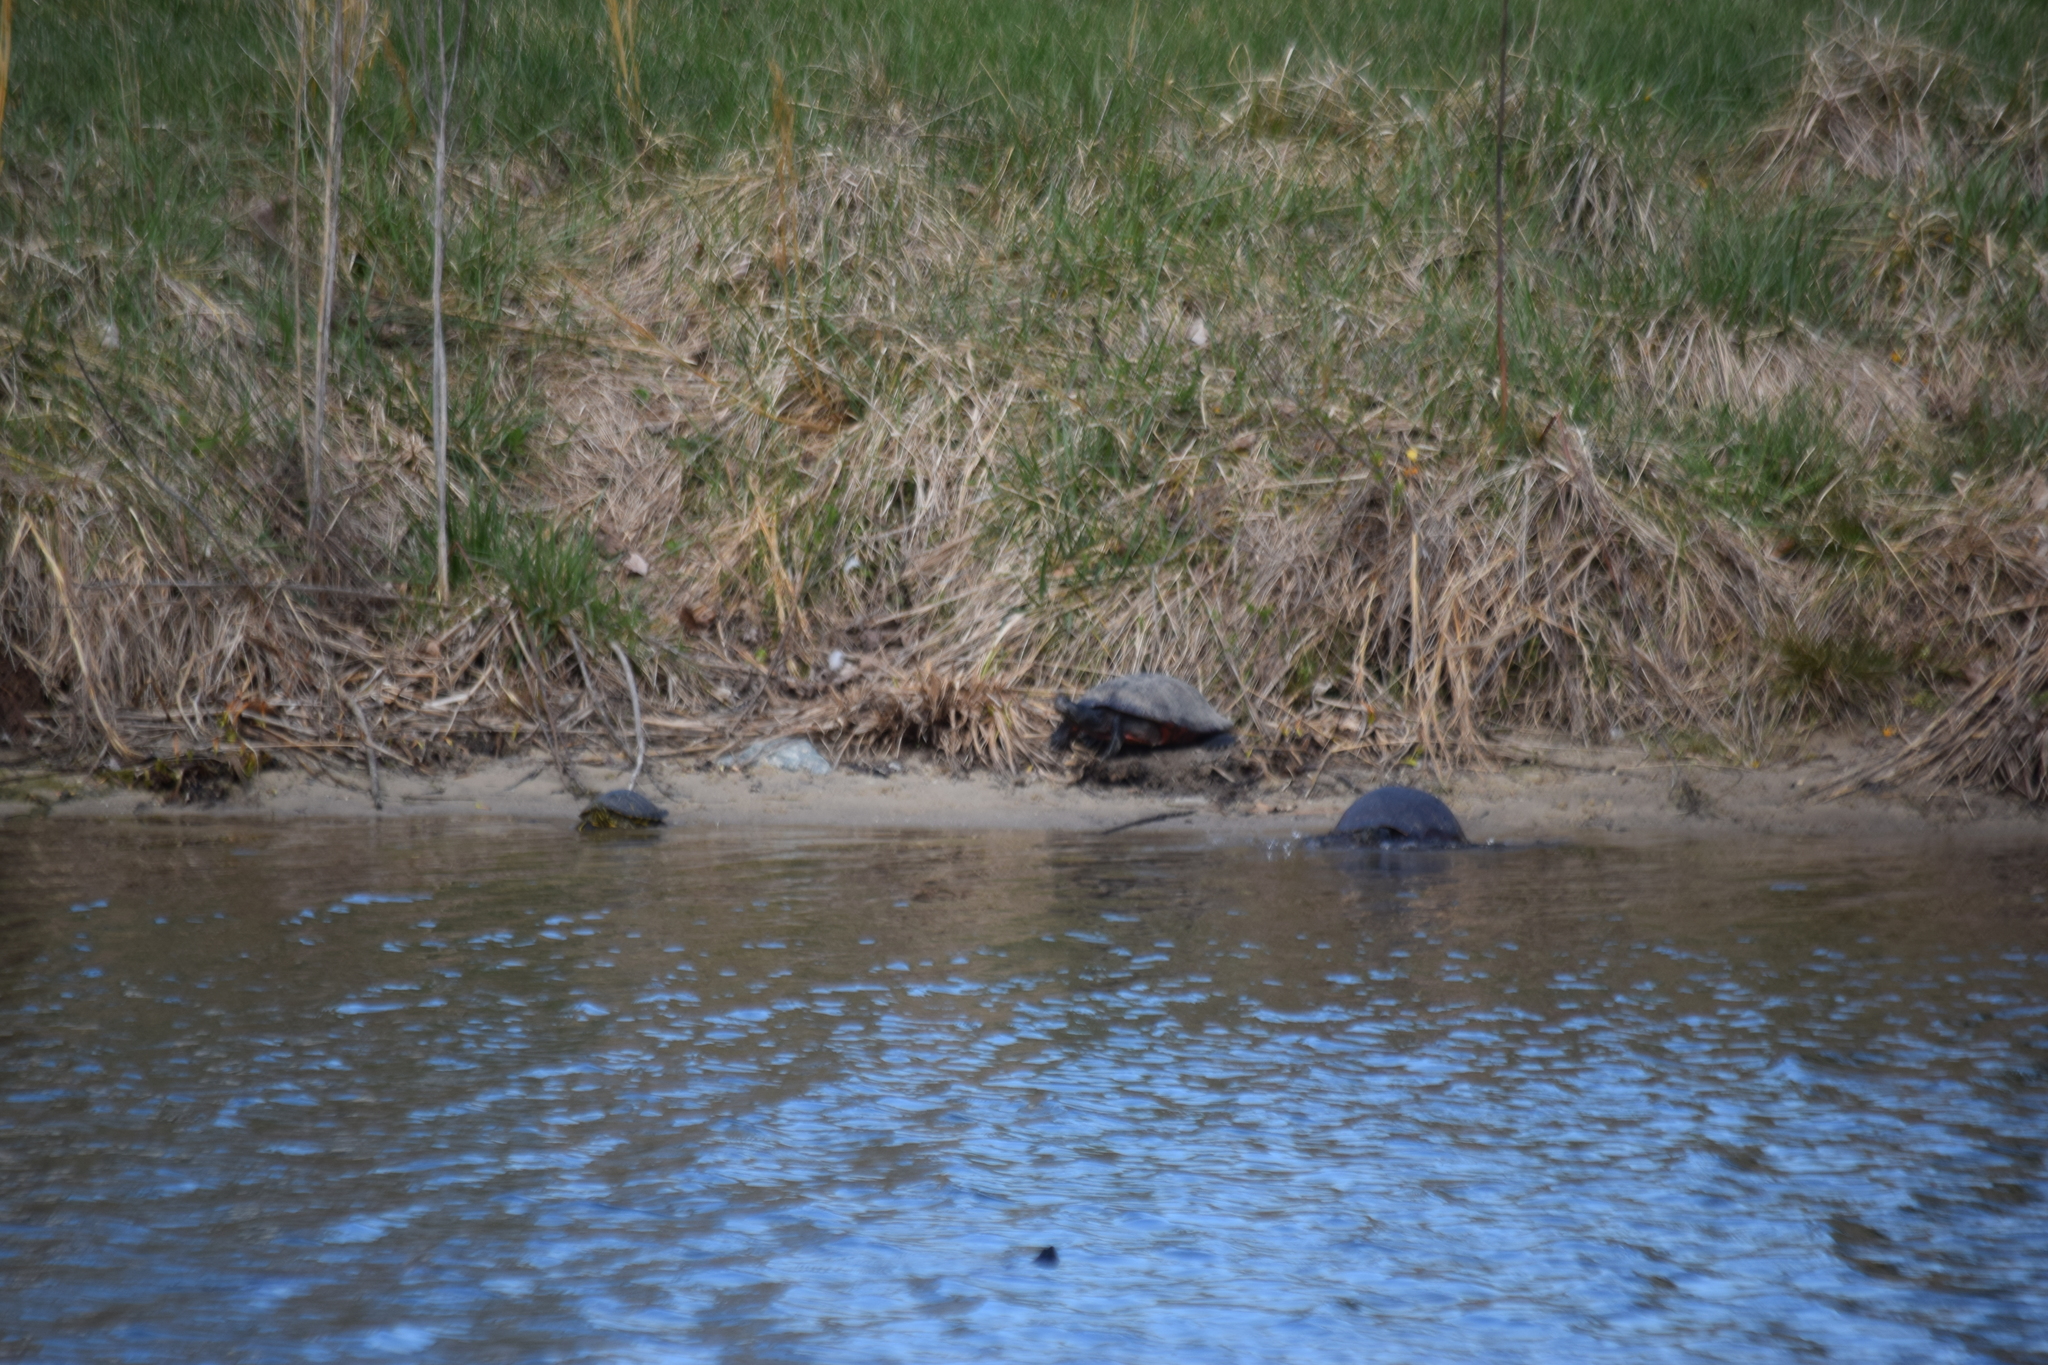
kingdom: Animalia
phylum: Chordata
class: Testudines
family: Emydidae
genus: Pseudemys
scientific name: Pseudemys rubriventris
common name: American red-bellied turtle
